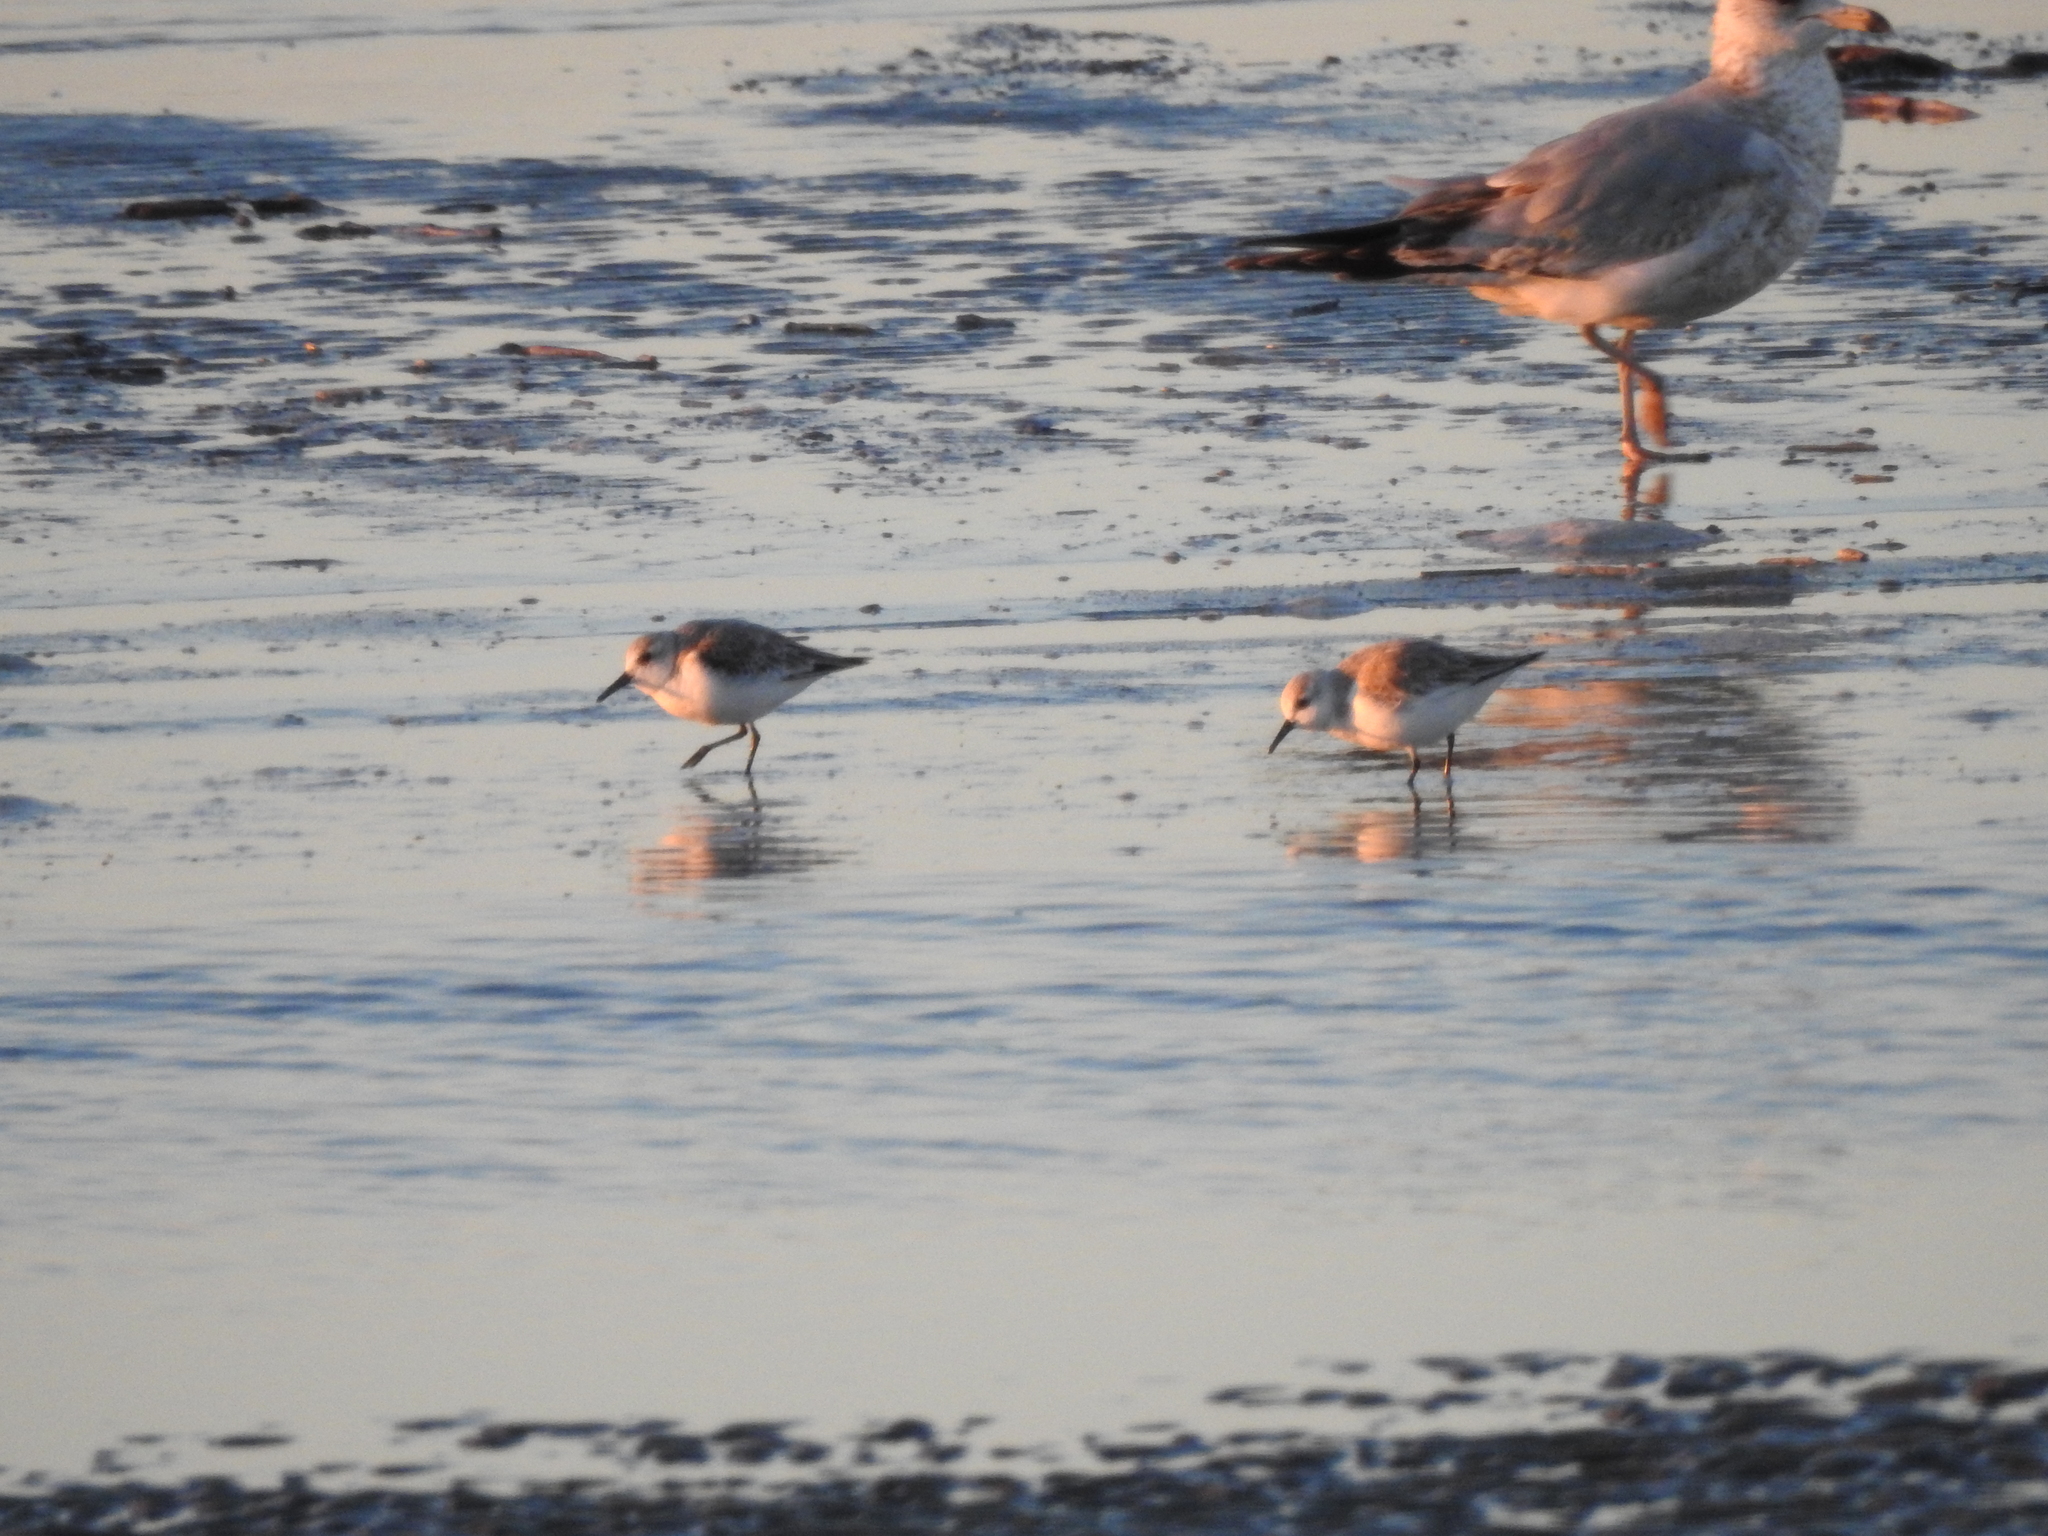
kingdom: Animalia
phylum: Chordata
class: Aves
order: Charadriiformes
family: Scolopacidae
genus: Calidris
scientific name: Calidris alba
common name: Sanderling
